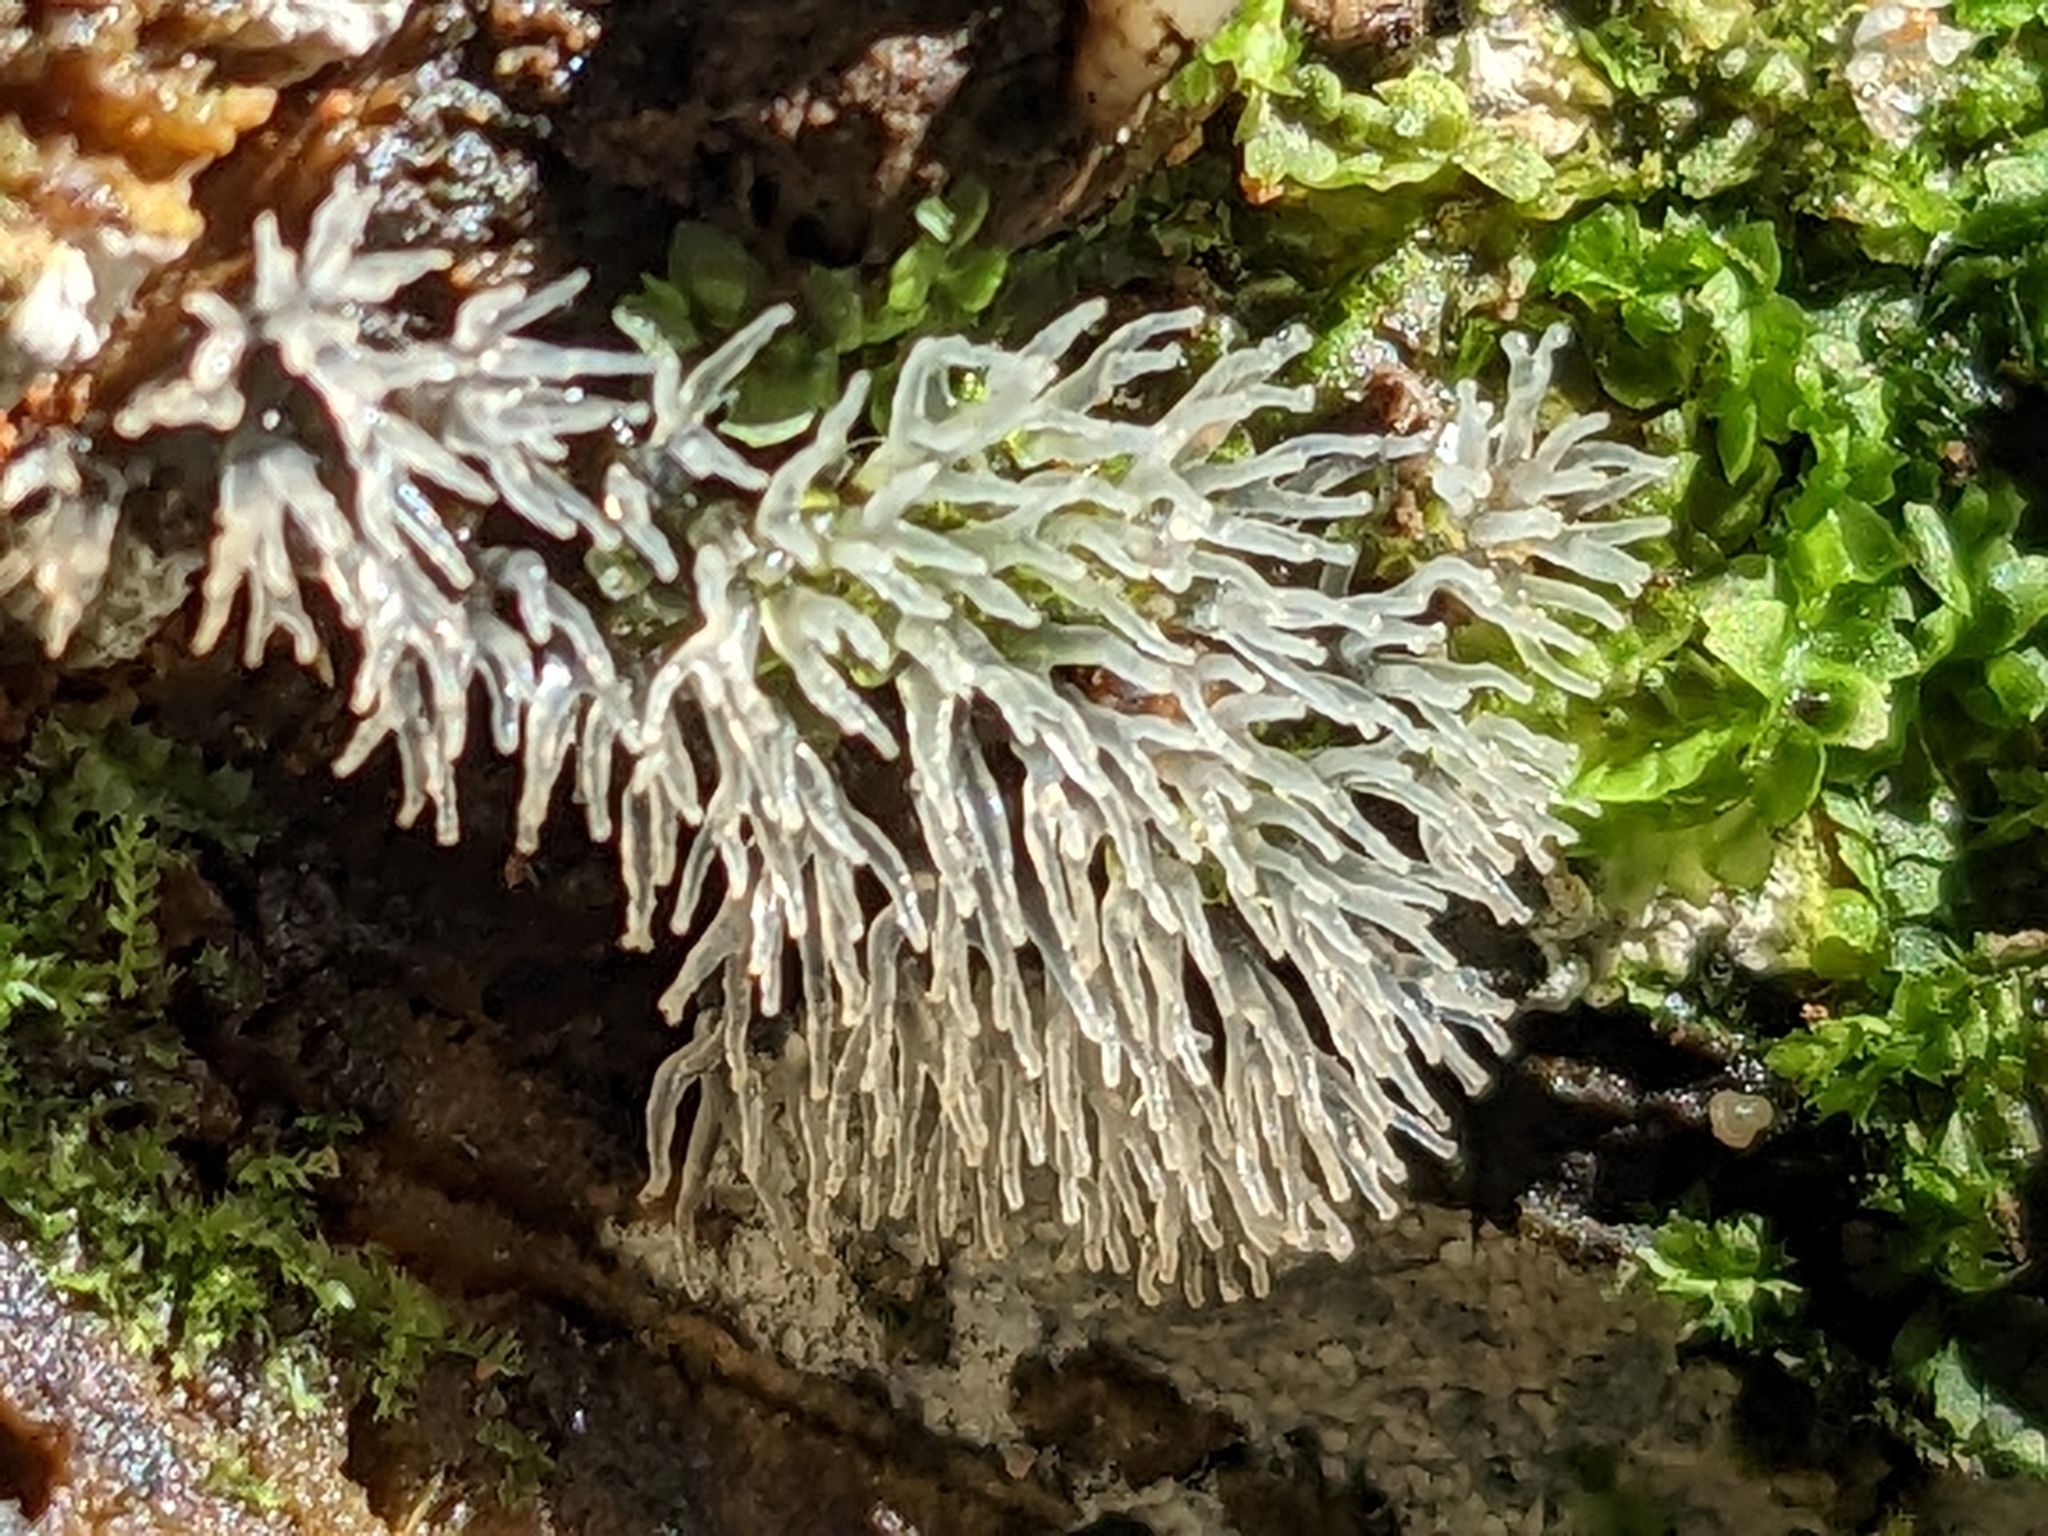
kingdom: Protozoa
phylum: Mycetozoa
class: Protosteliomycetes
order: Ceratiomyxales
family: Ceratiomyxaceae
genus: Ceratiomyxa
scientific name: Ceratiomyxa fruticulosa
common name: Honeycomb coral slime mold
